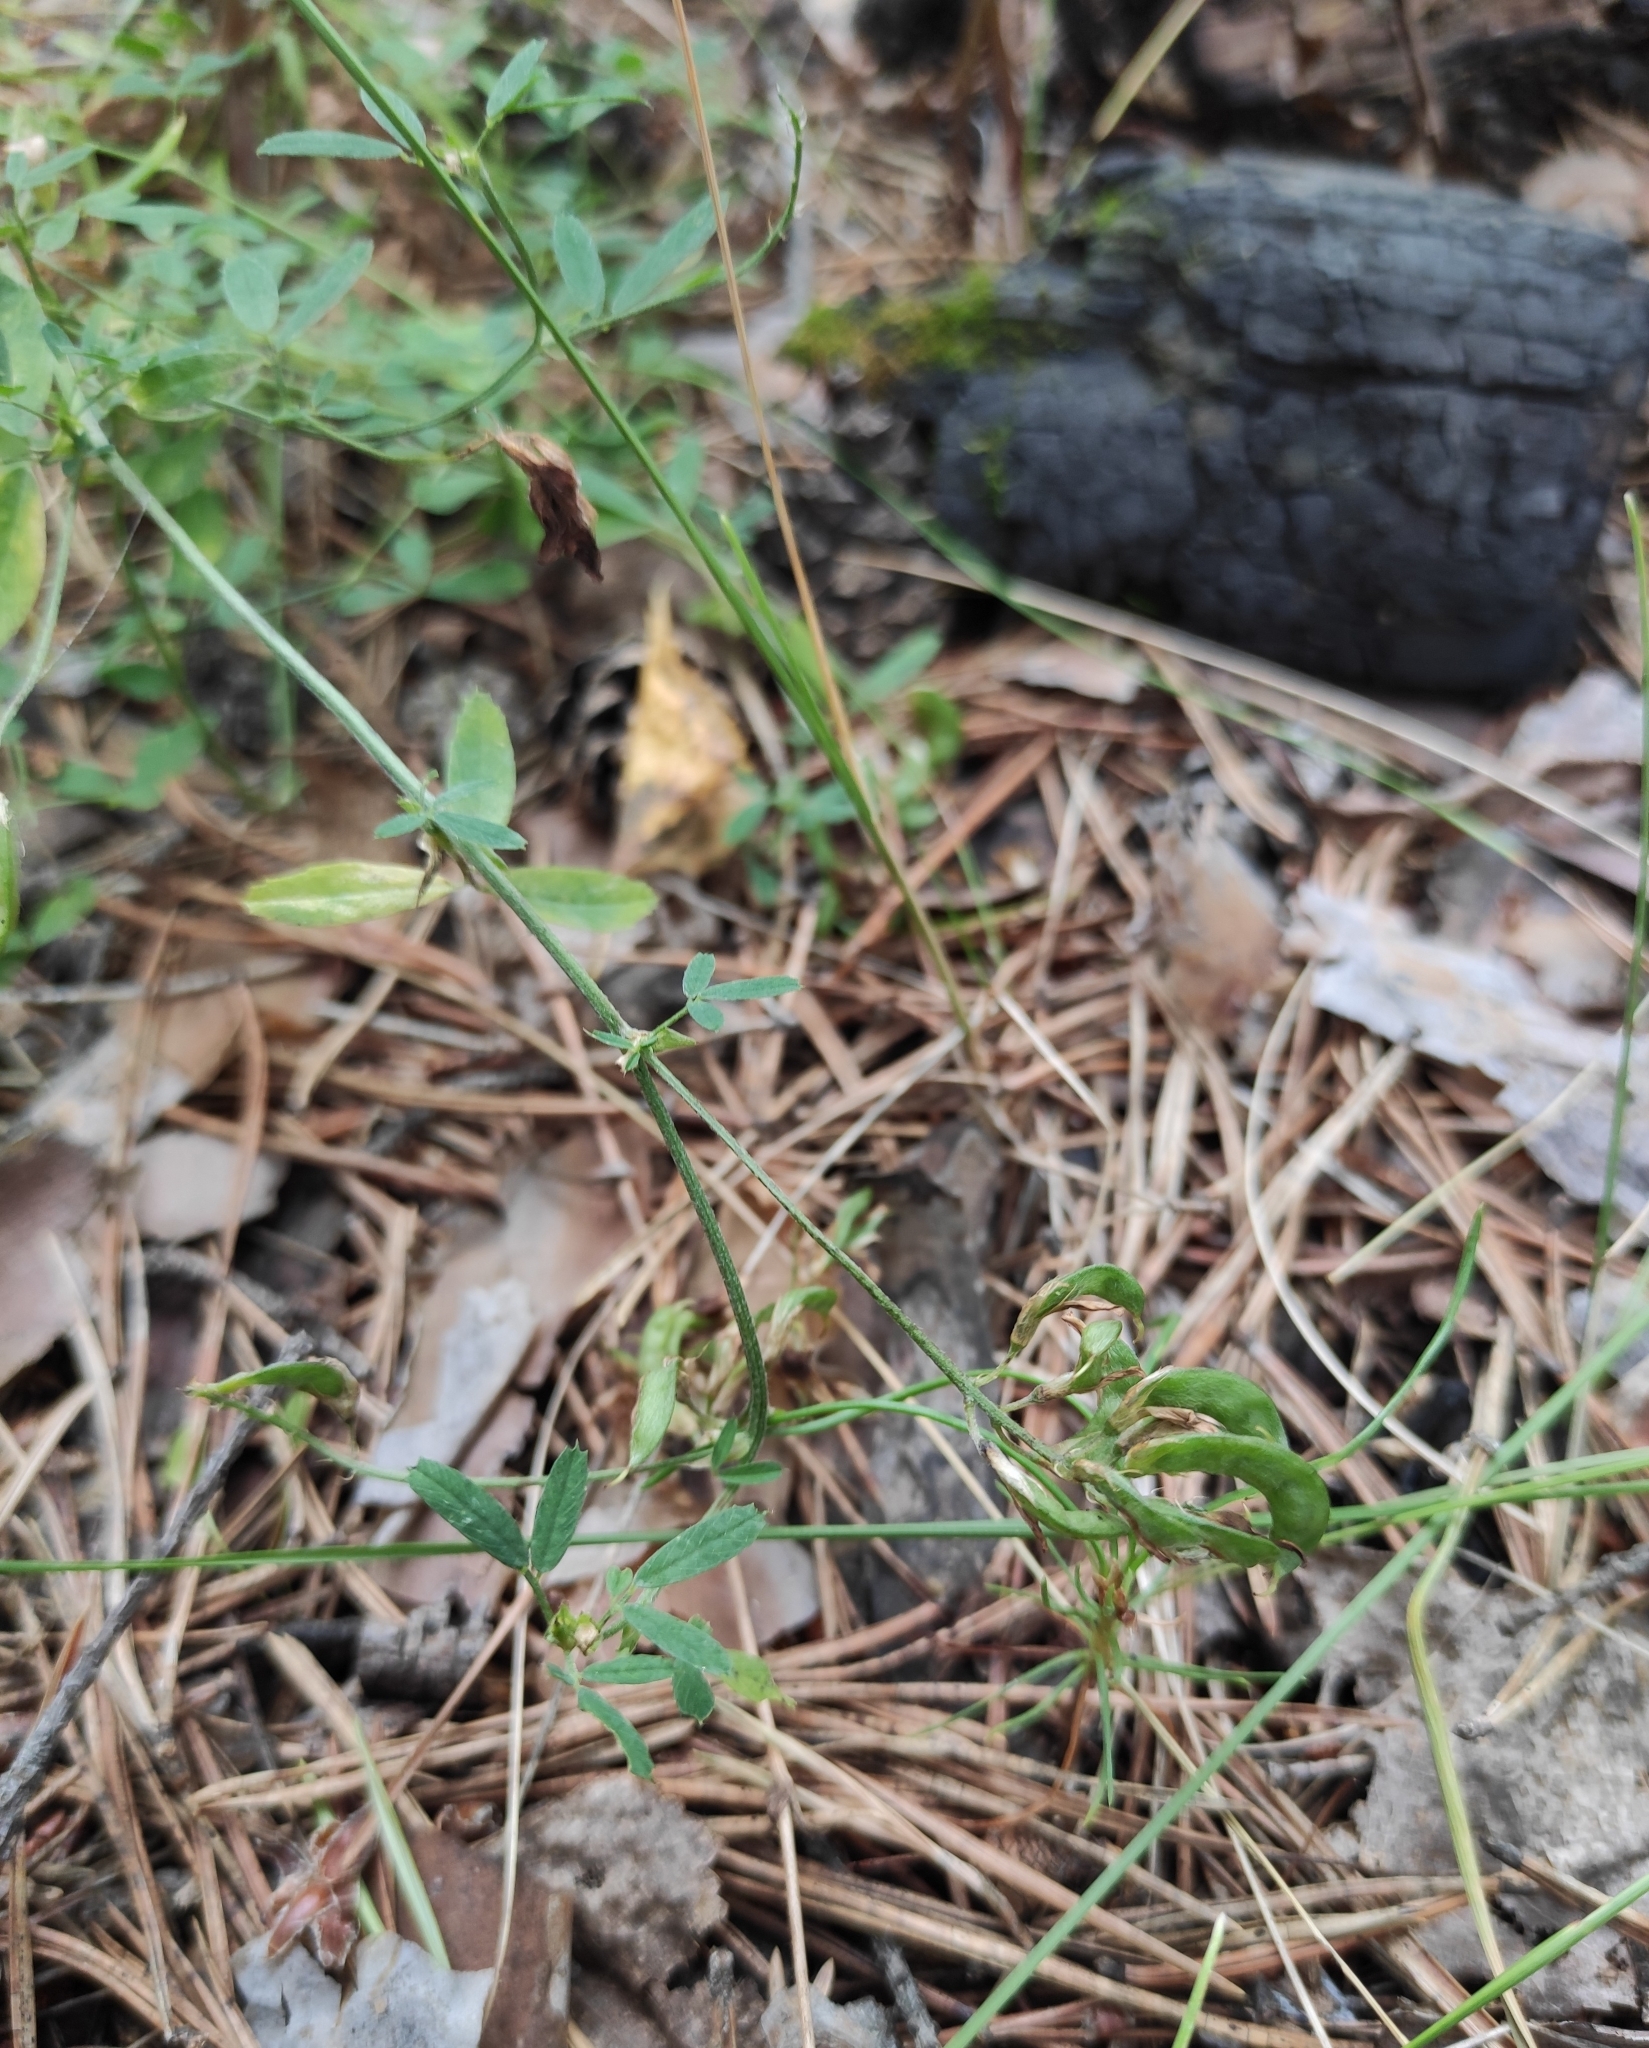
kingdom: Plantae
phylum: Tracheophyta
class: Magnoliopsida
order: Fabales
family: Fabaceae
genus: Medicago
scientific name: Medicago falcata
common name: Sickle medick
